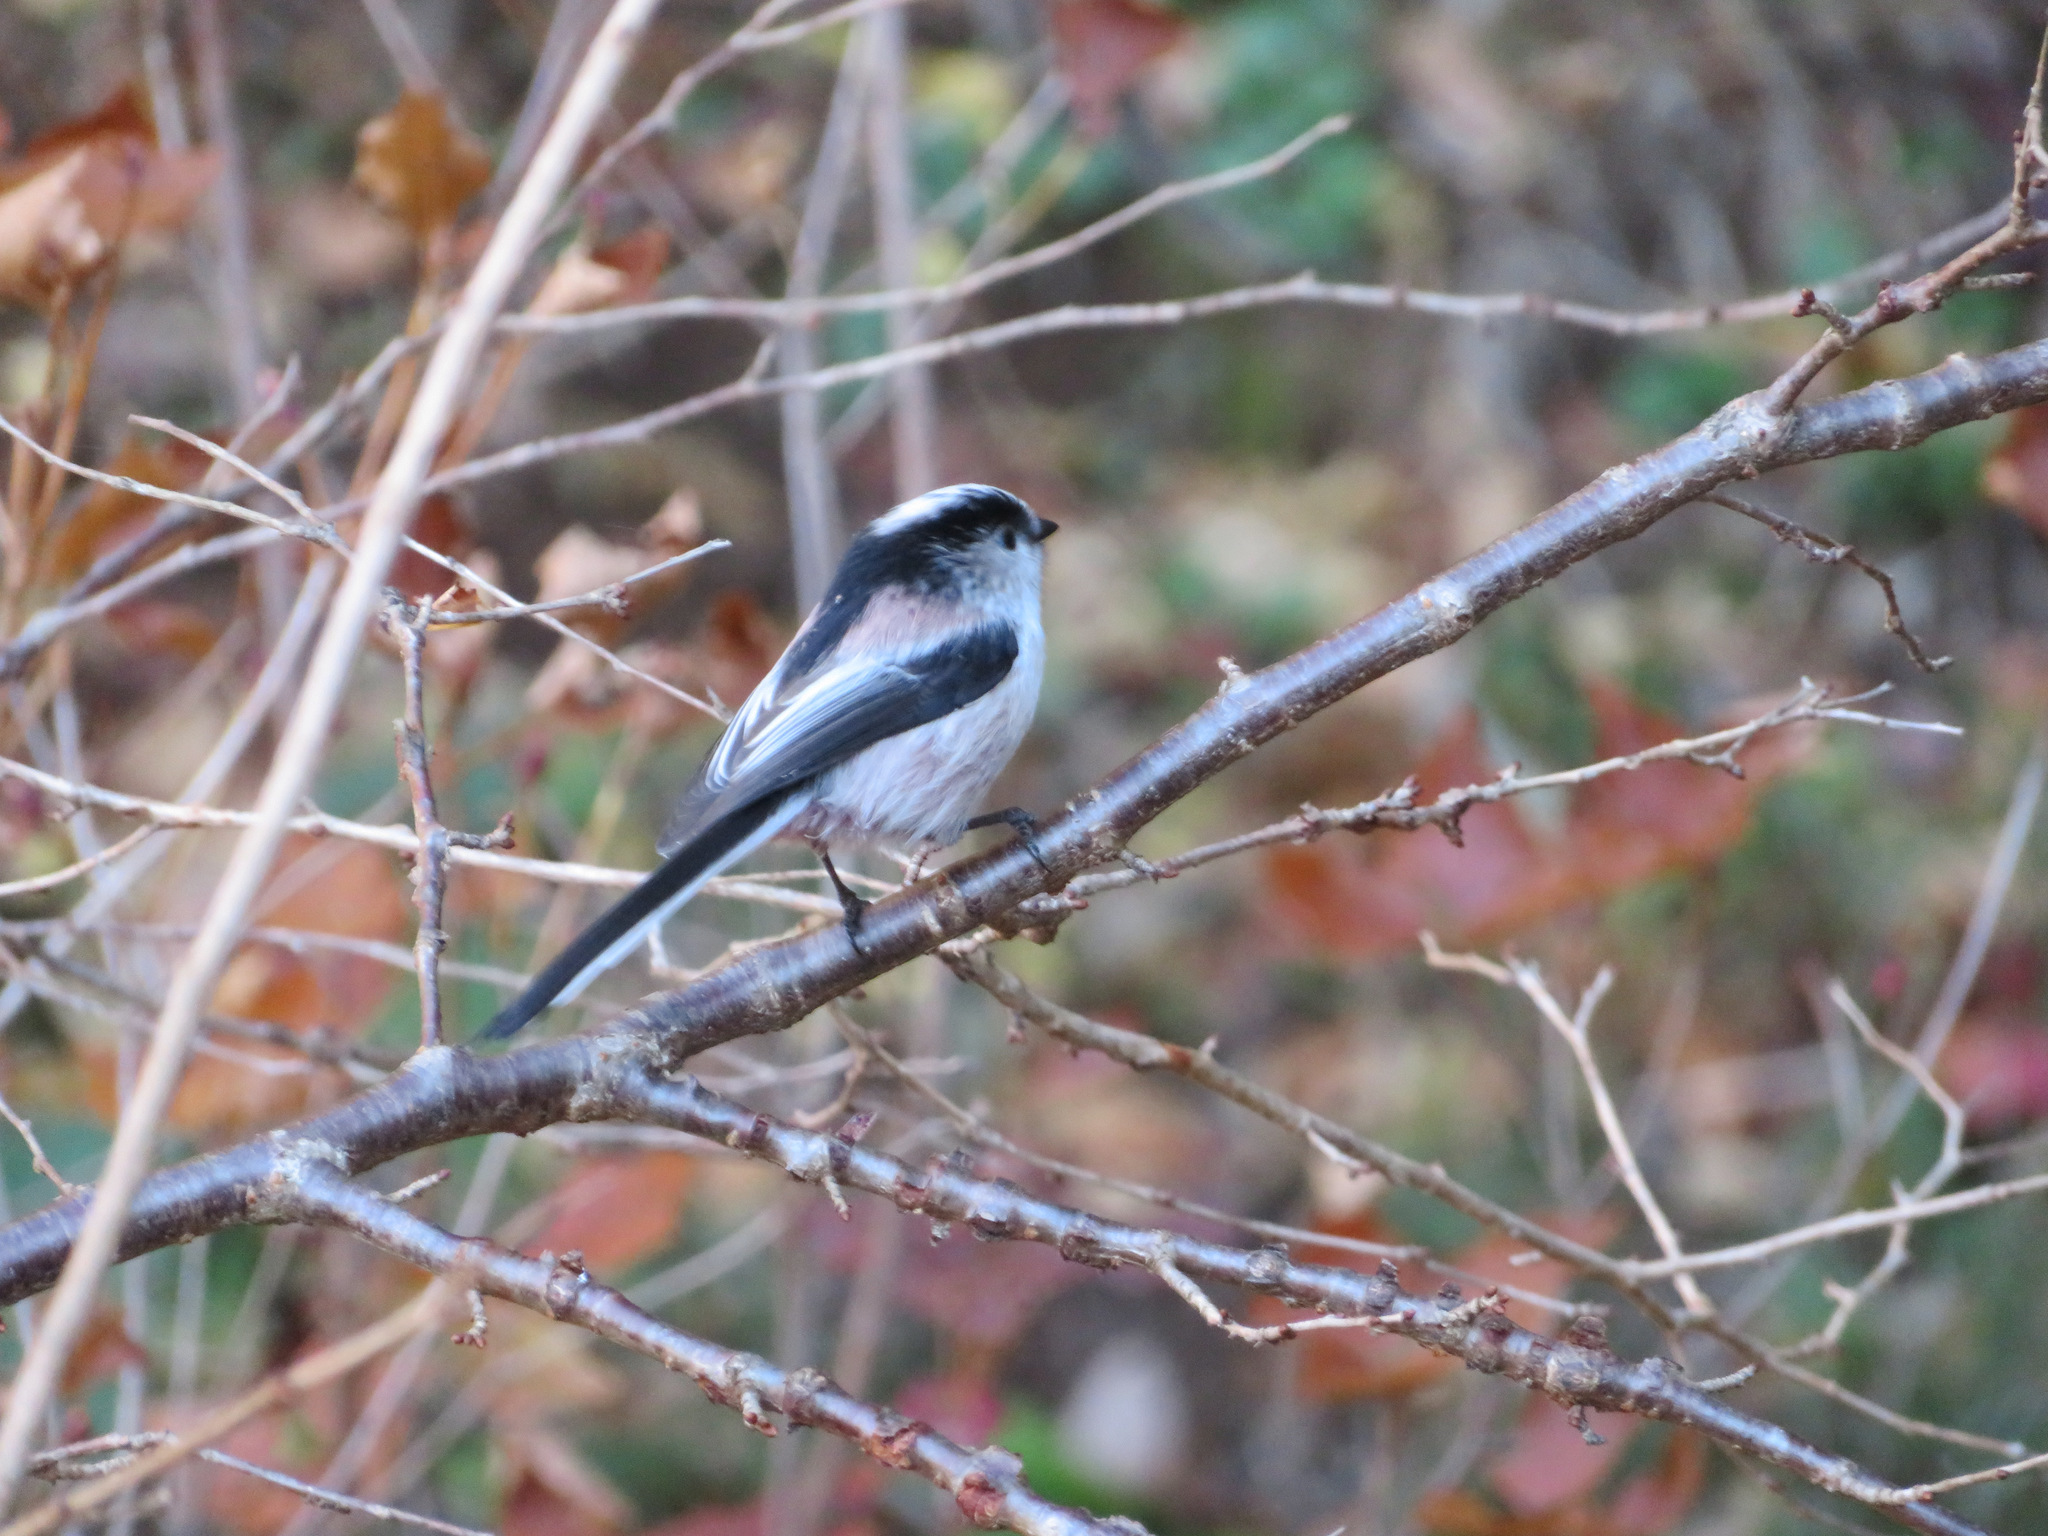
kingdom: Animalia
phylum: Chordata
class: Aves
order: Passeriformes
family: Aegithalidae
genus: Aegithalos
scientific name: Aegithalos caudatus
